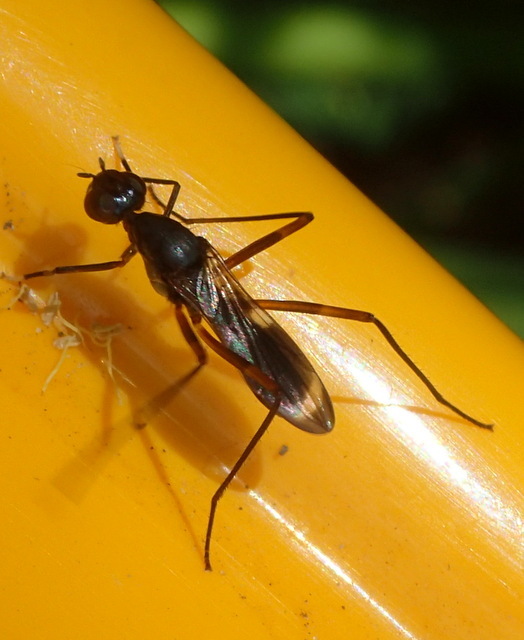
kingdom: Animalia
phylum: Arthropoda
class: Insecta
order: Diptera
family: Micropezidae
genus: Taeniaptera
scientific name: Taeniaptera trivittata
